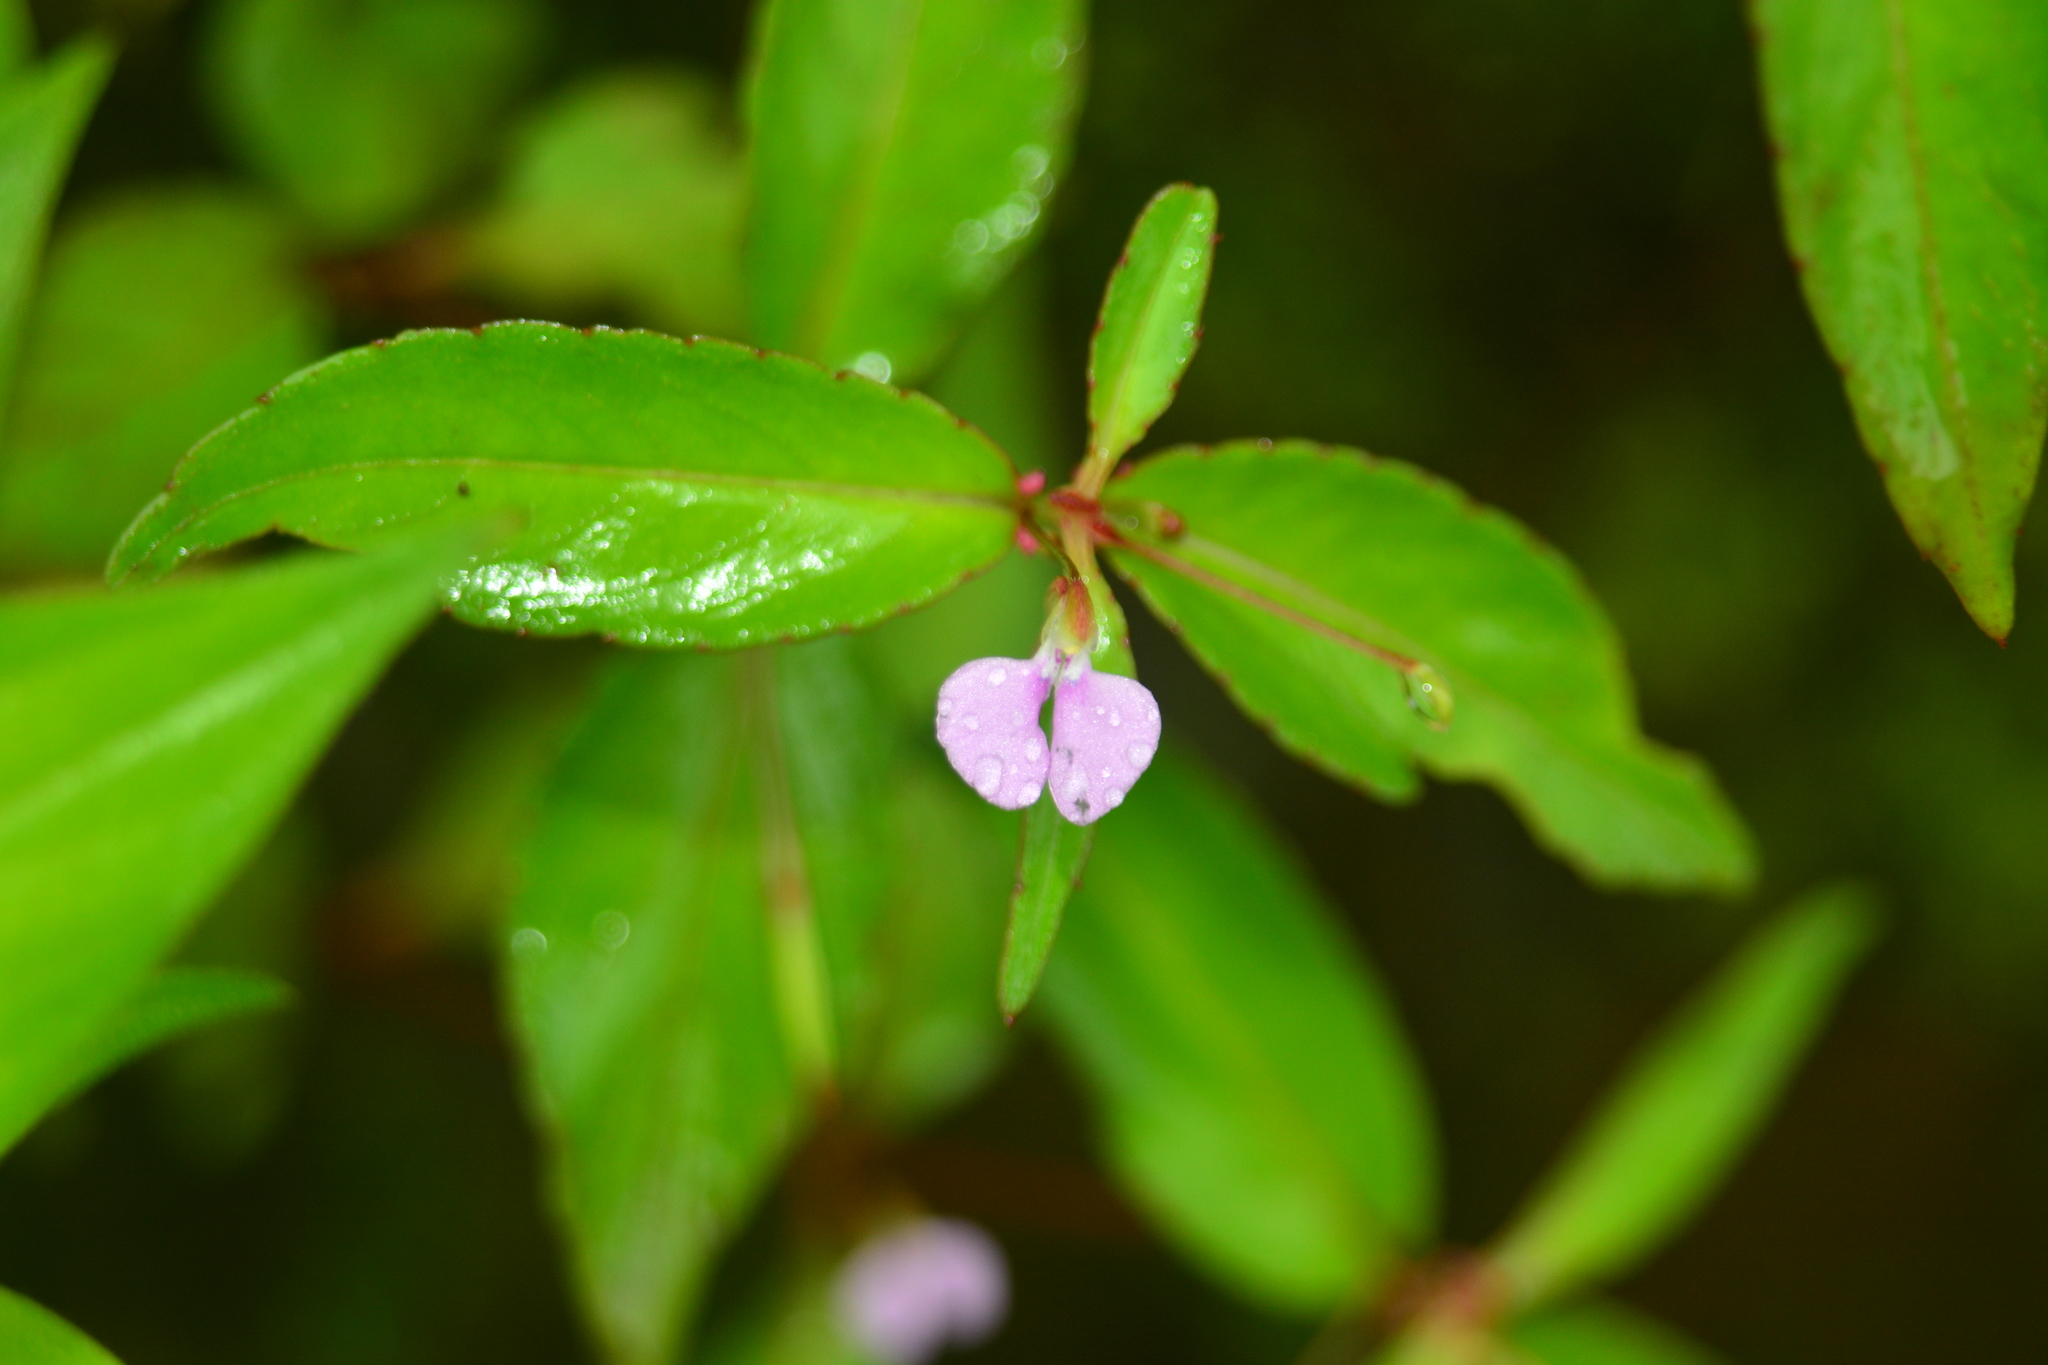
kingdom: Plantae
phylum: Tracheophyta
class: Magnoliopsida
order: Ericales
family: Balsaminaceae
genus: Impatiens
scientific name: Impatiens minor
